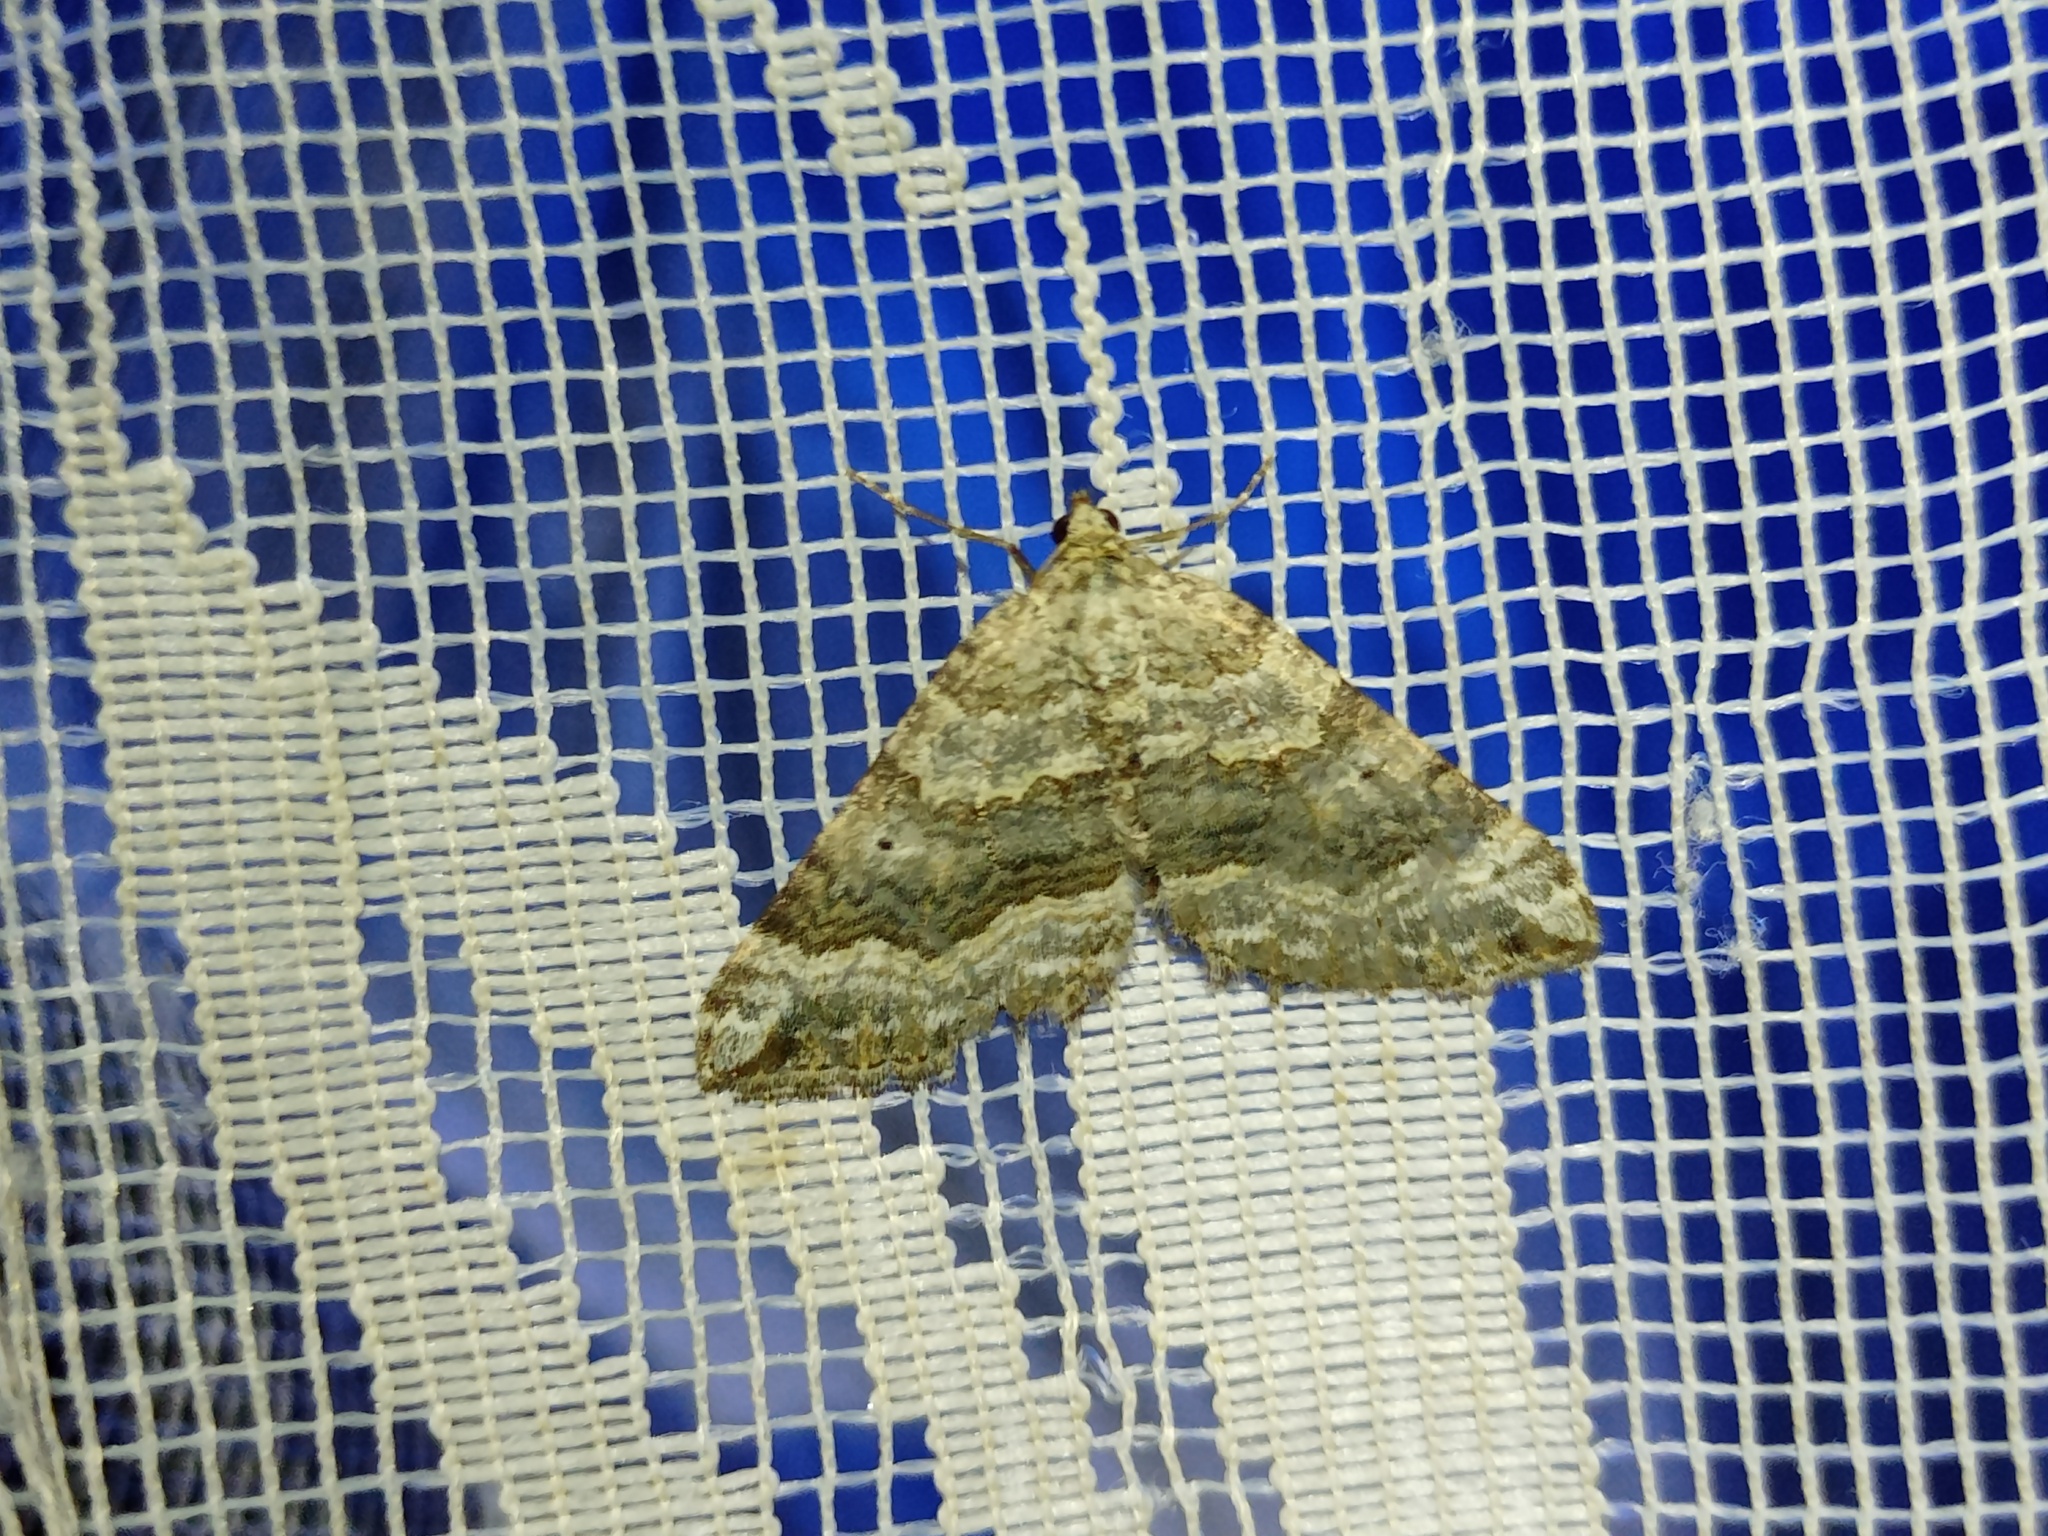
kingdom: Animalia
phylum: Arthropoda
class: Insecta
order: Lepidoptera
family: Geometridae
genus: Scotopteryx
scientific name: Scotopteryx vicinaria
